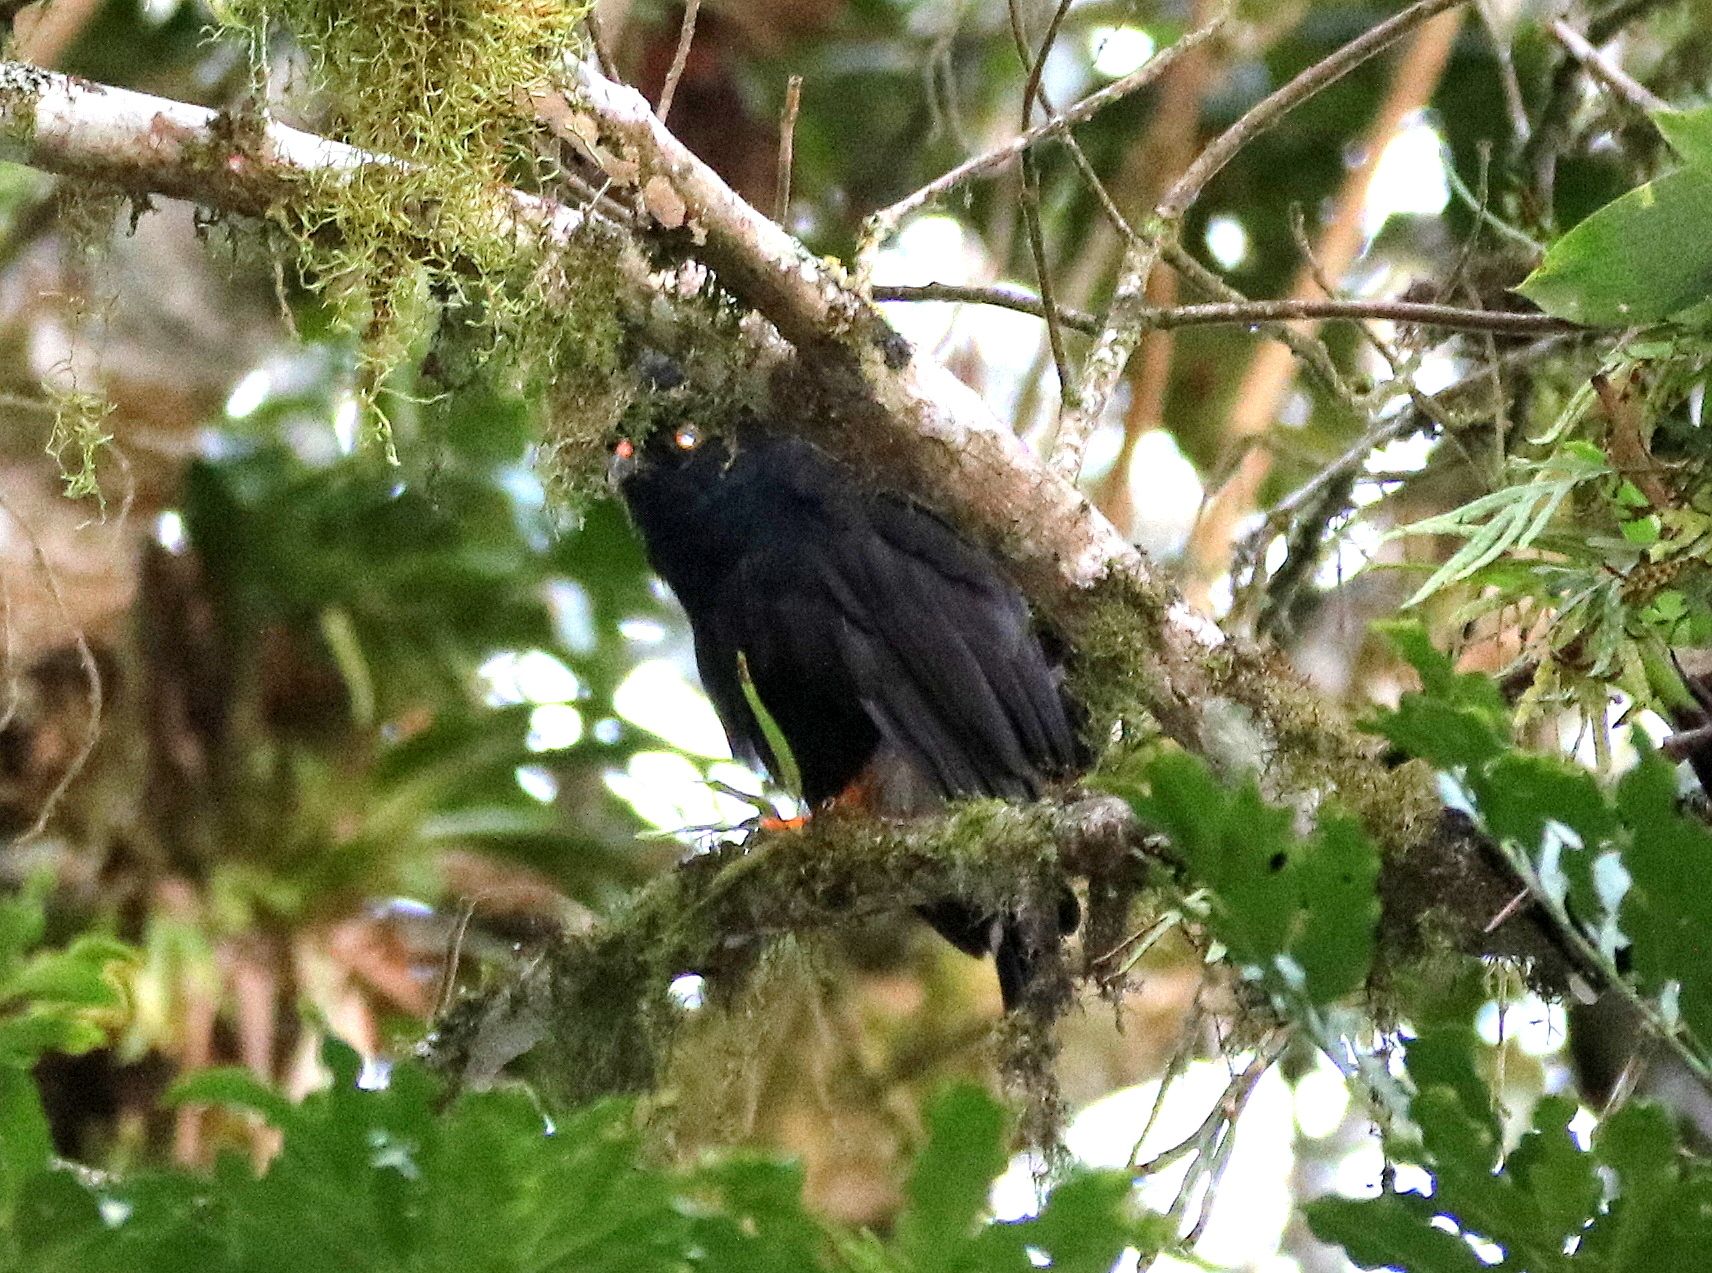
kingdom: Animalia
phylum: Chordata
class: Aves
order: Accipitriformes
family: Accipitridae
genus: Percnohierax
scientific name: Percnohierax leucorrhous
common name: White-rumped hawk
